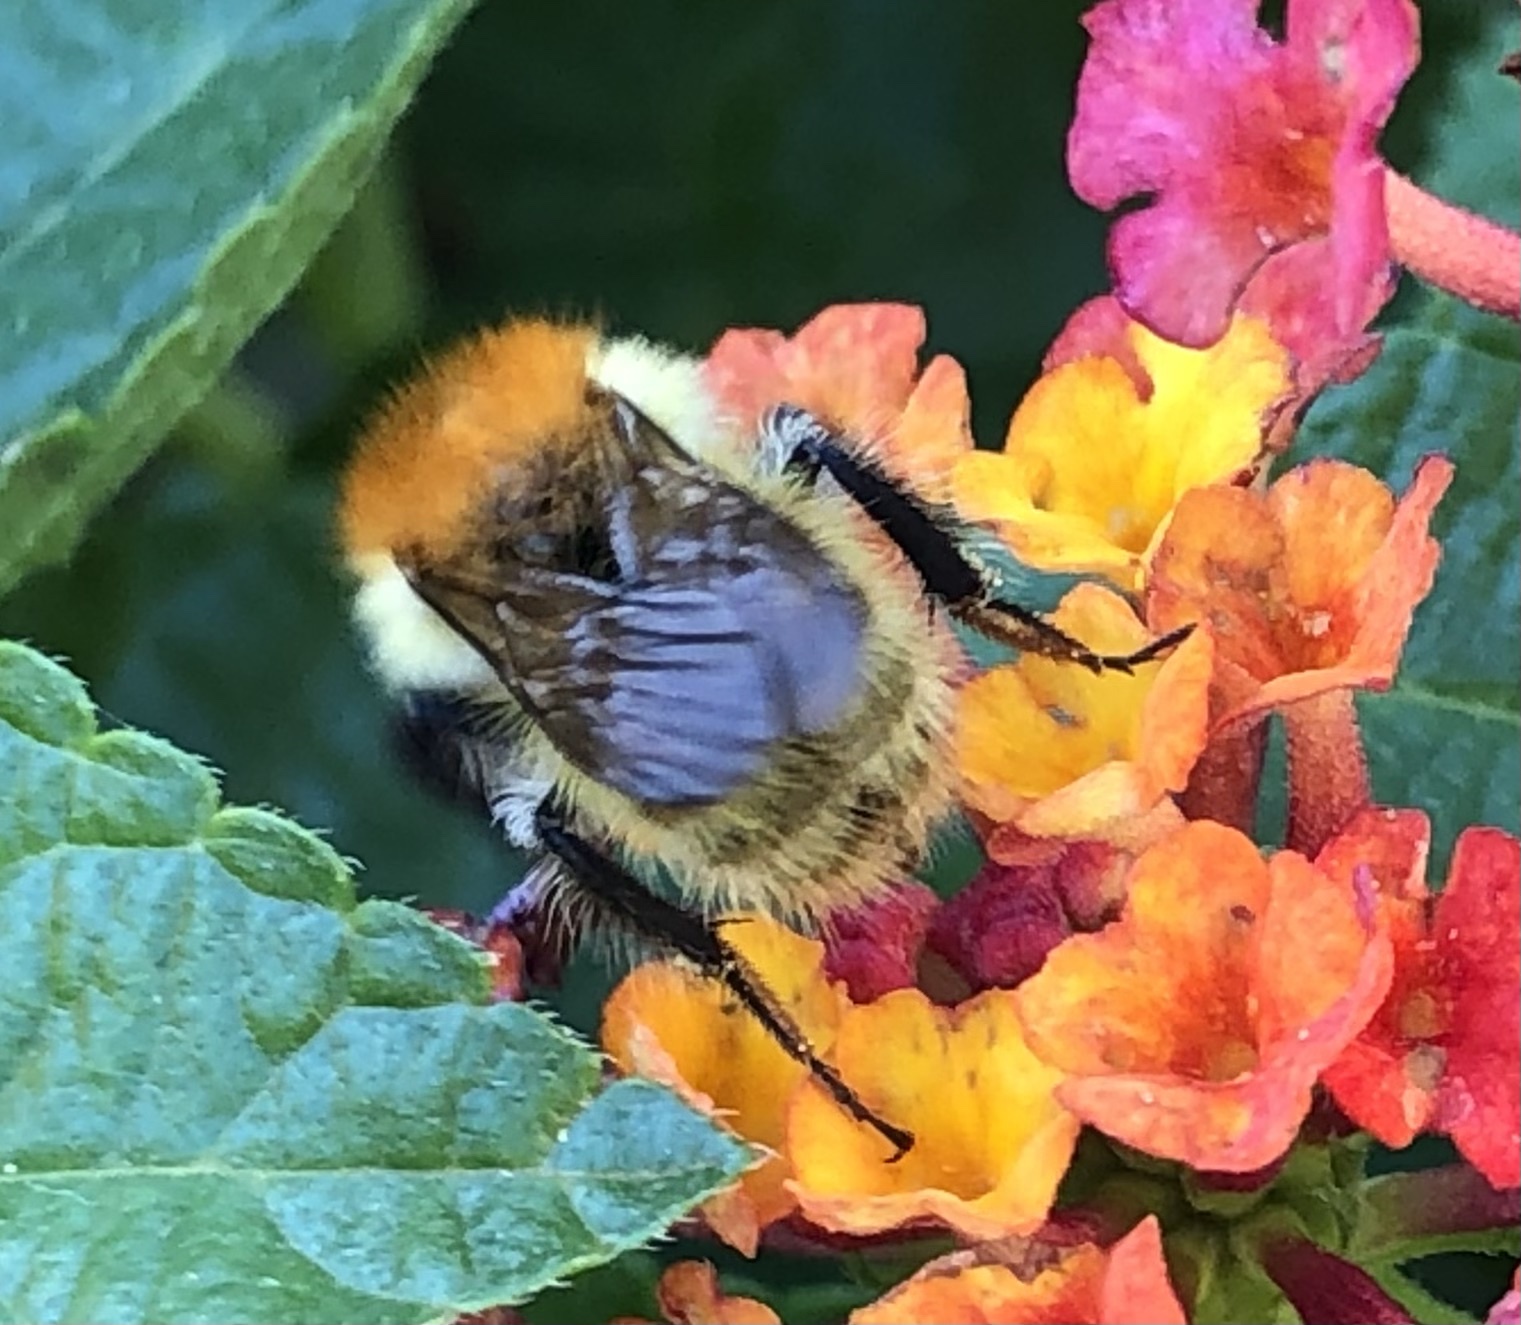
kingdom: Animalia
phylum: Arthropoda
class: Insecta
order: Hymenoptera
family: Apidae
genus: Bombus
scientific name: Bombus pascuorum
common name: Common carder bee
